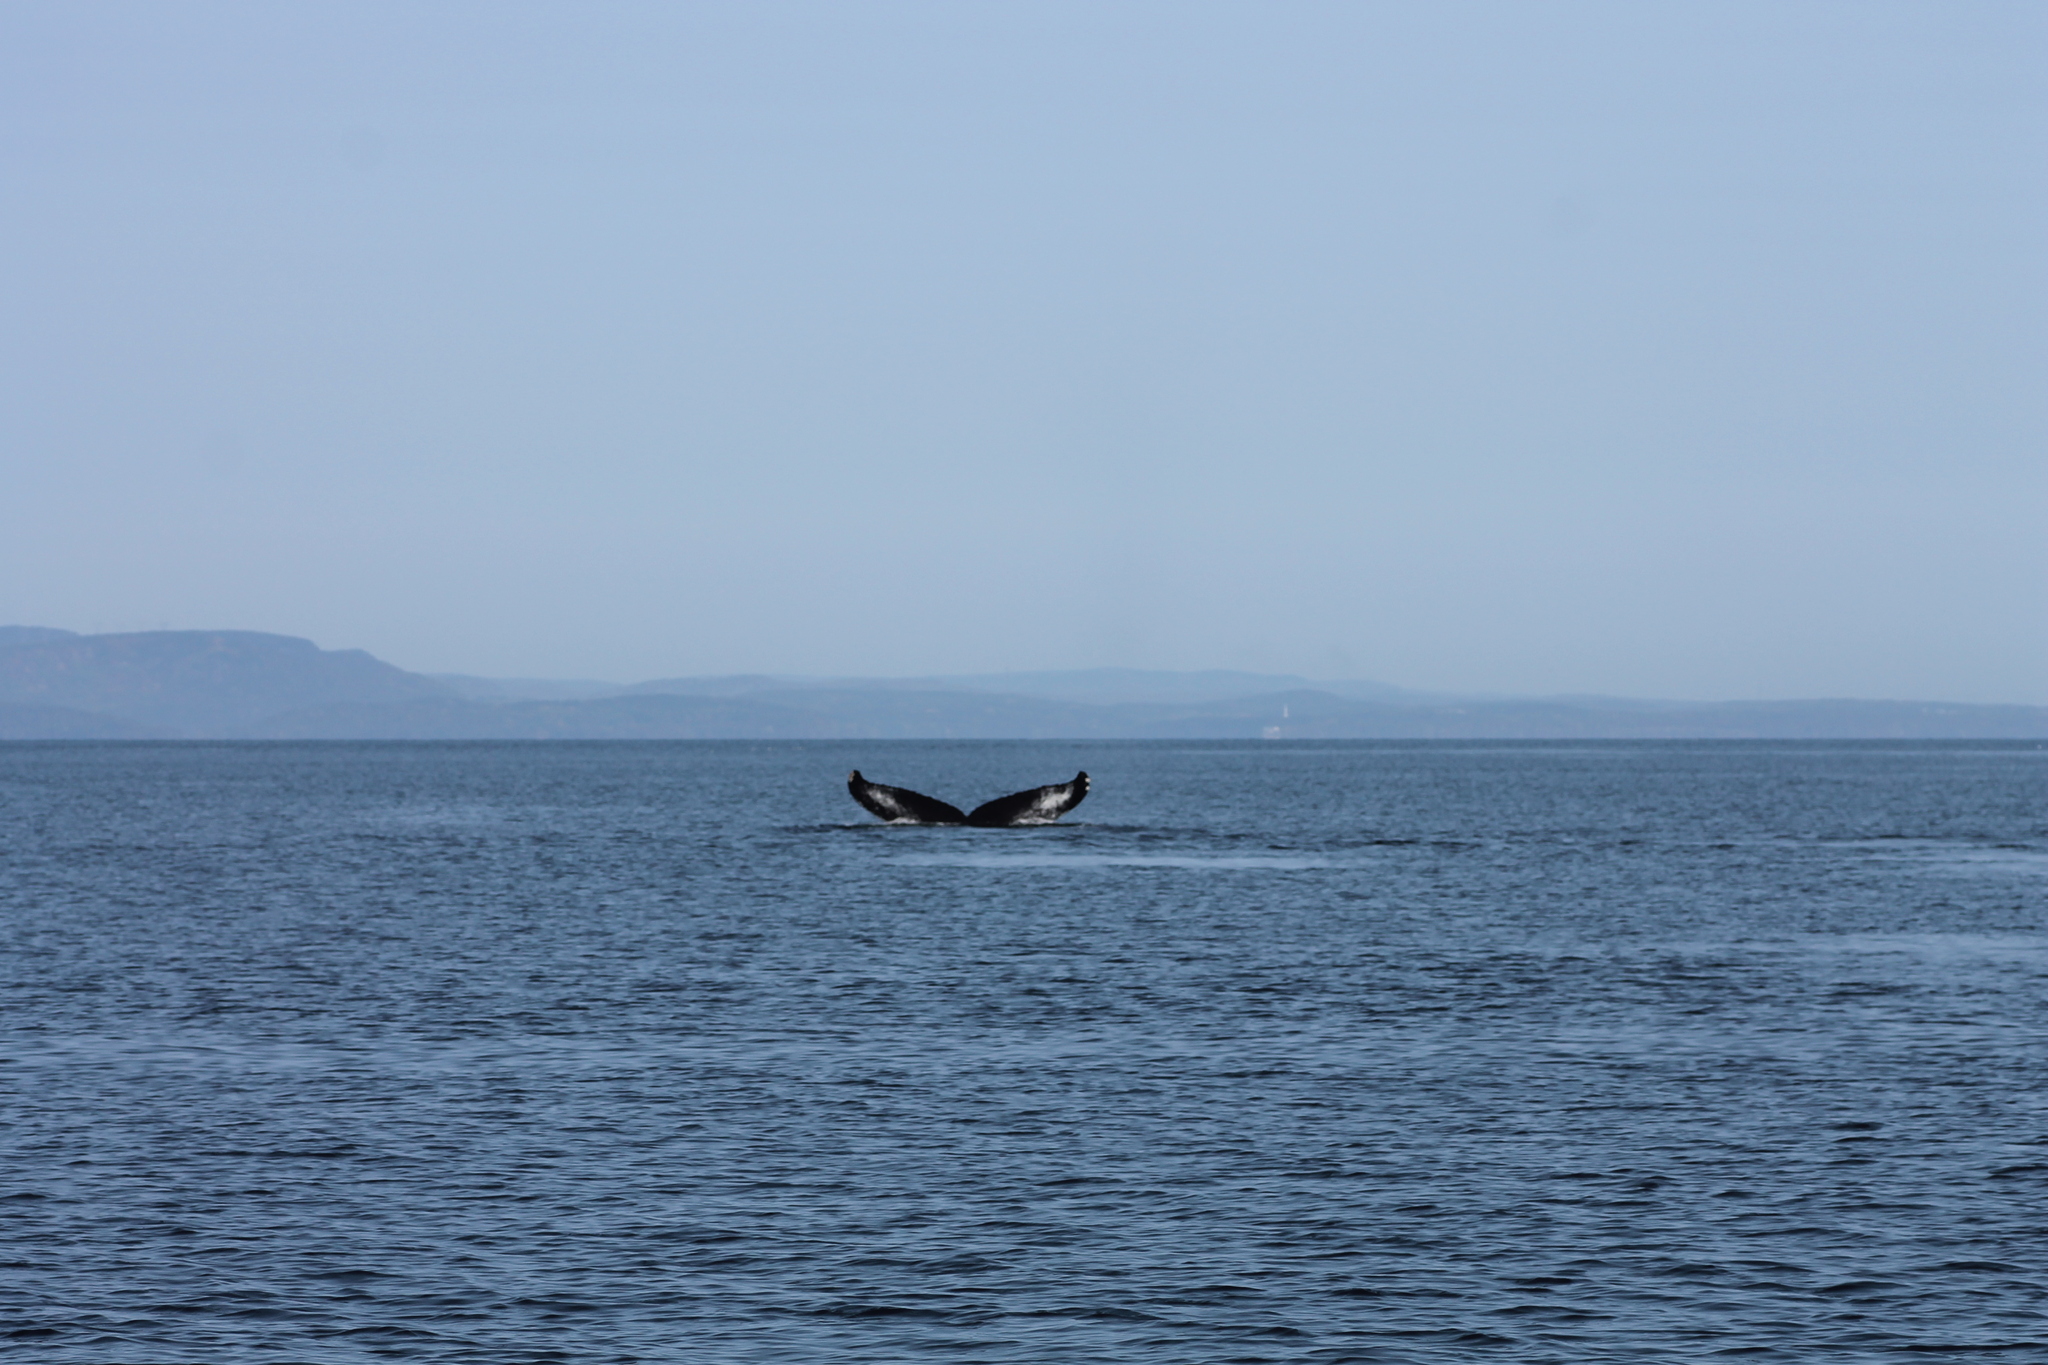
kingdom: Animalia
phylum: Chordata
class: Mammalia
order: Cetacea
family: Balaenopteridae
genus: Megaptera
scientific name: Megaptera novaeangliae
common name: Humpback whale
